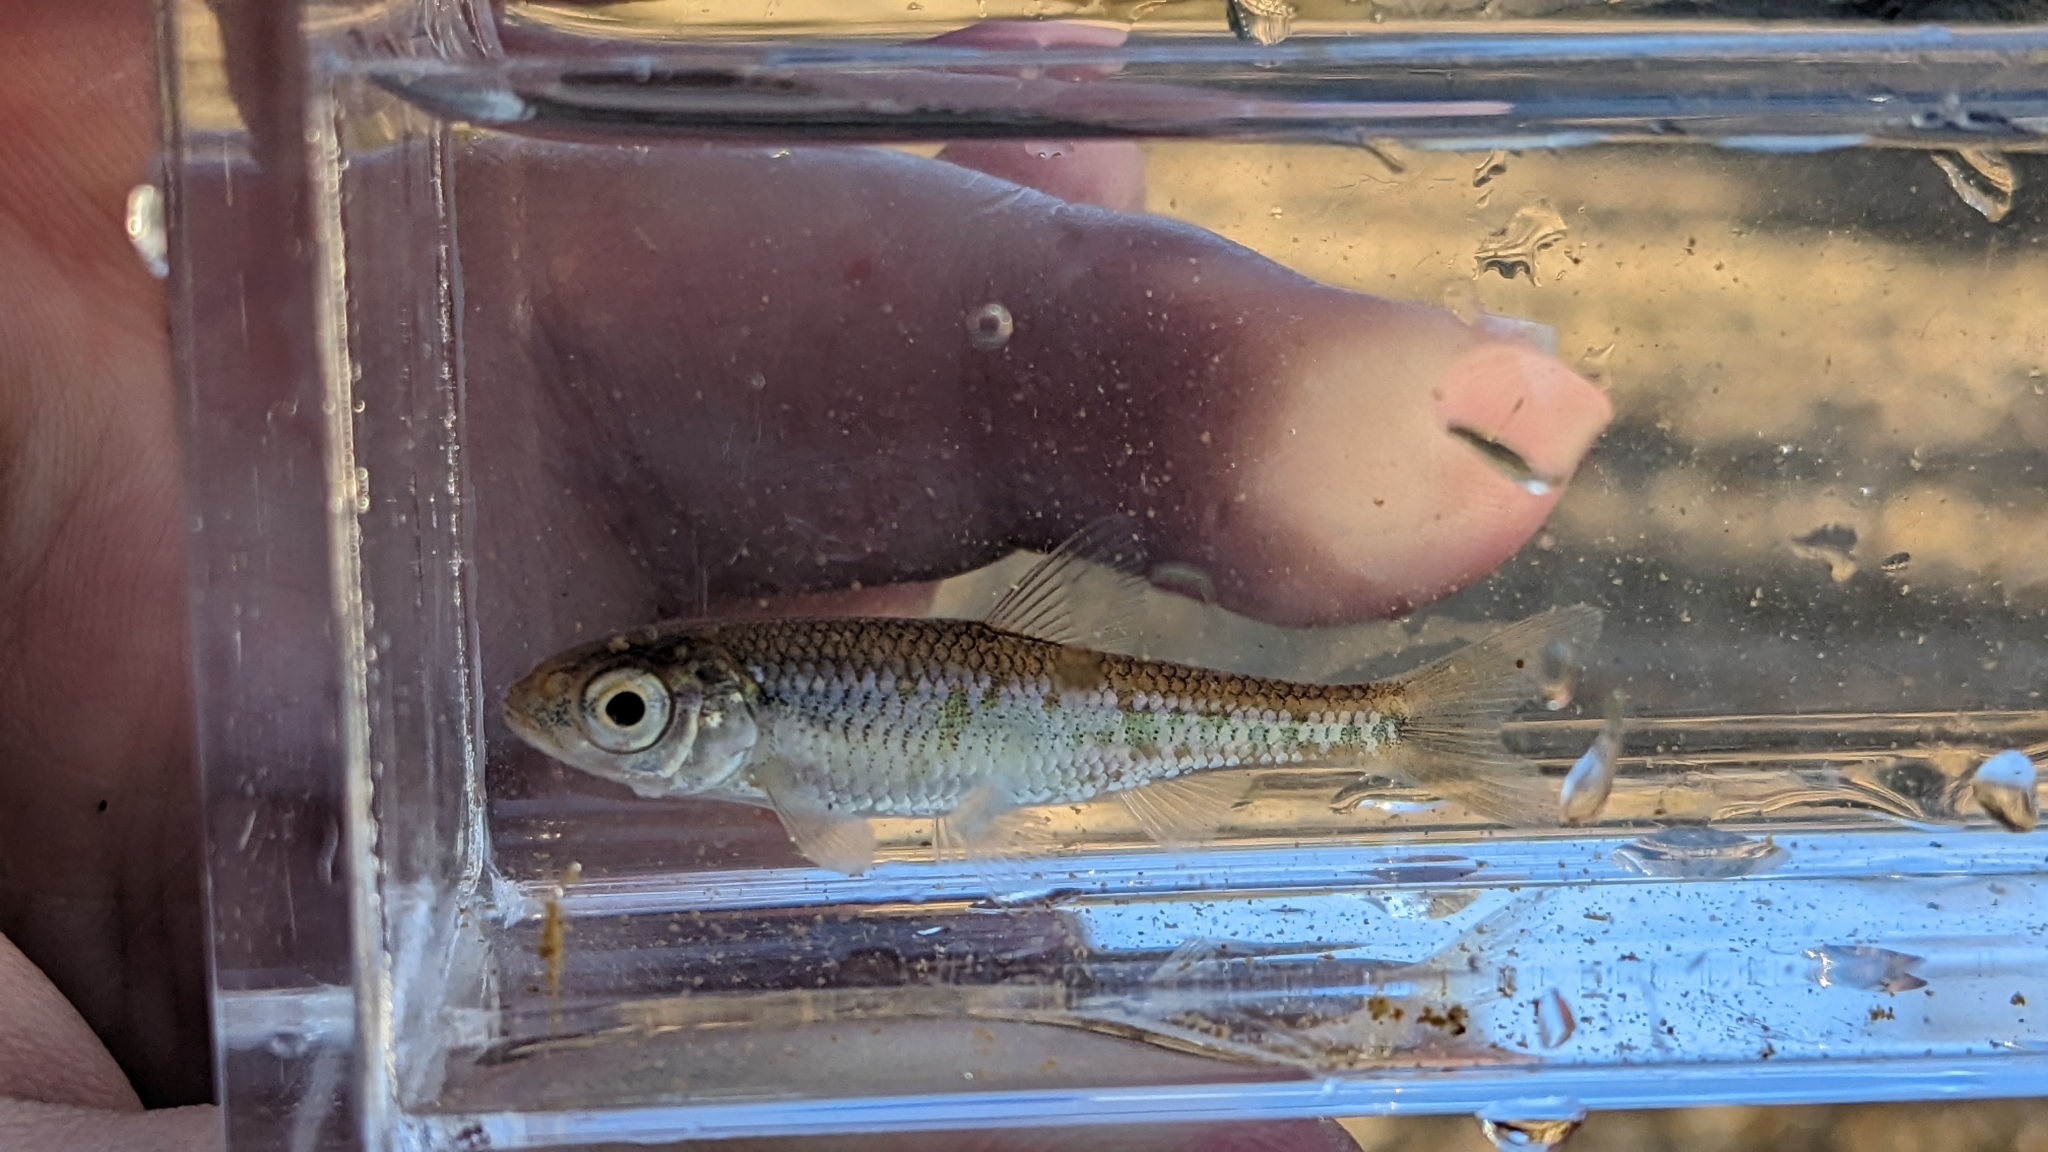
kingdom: Animalia
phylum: Chordata
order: Cypriniformes
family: Cyprinidae
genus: Luxilus
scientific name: Luxilus chrysocephalus
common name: Striped shiner
